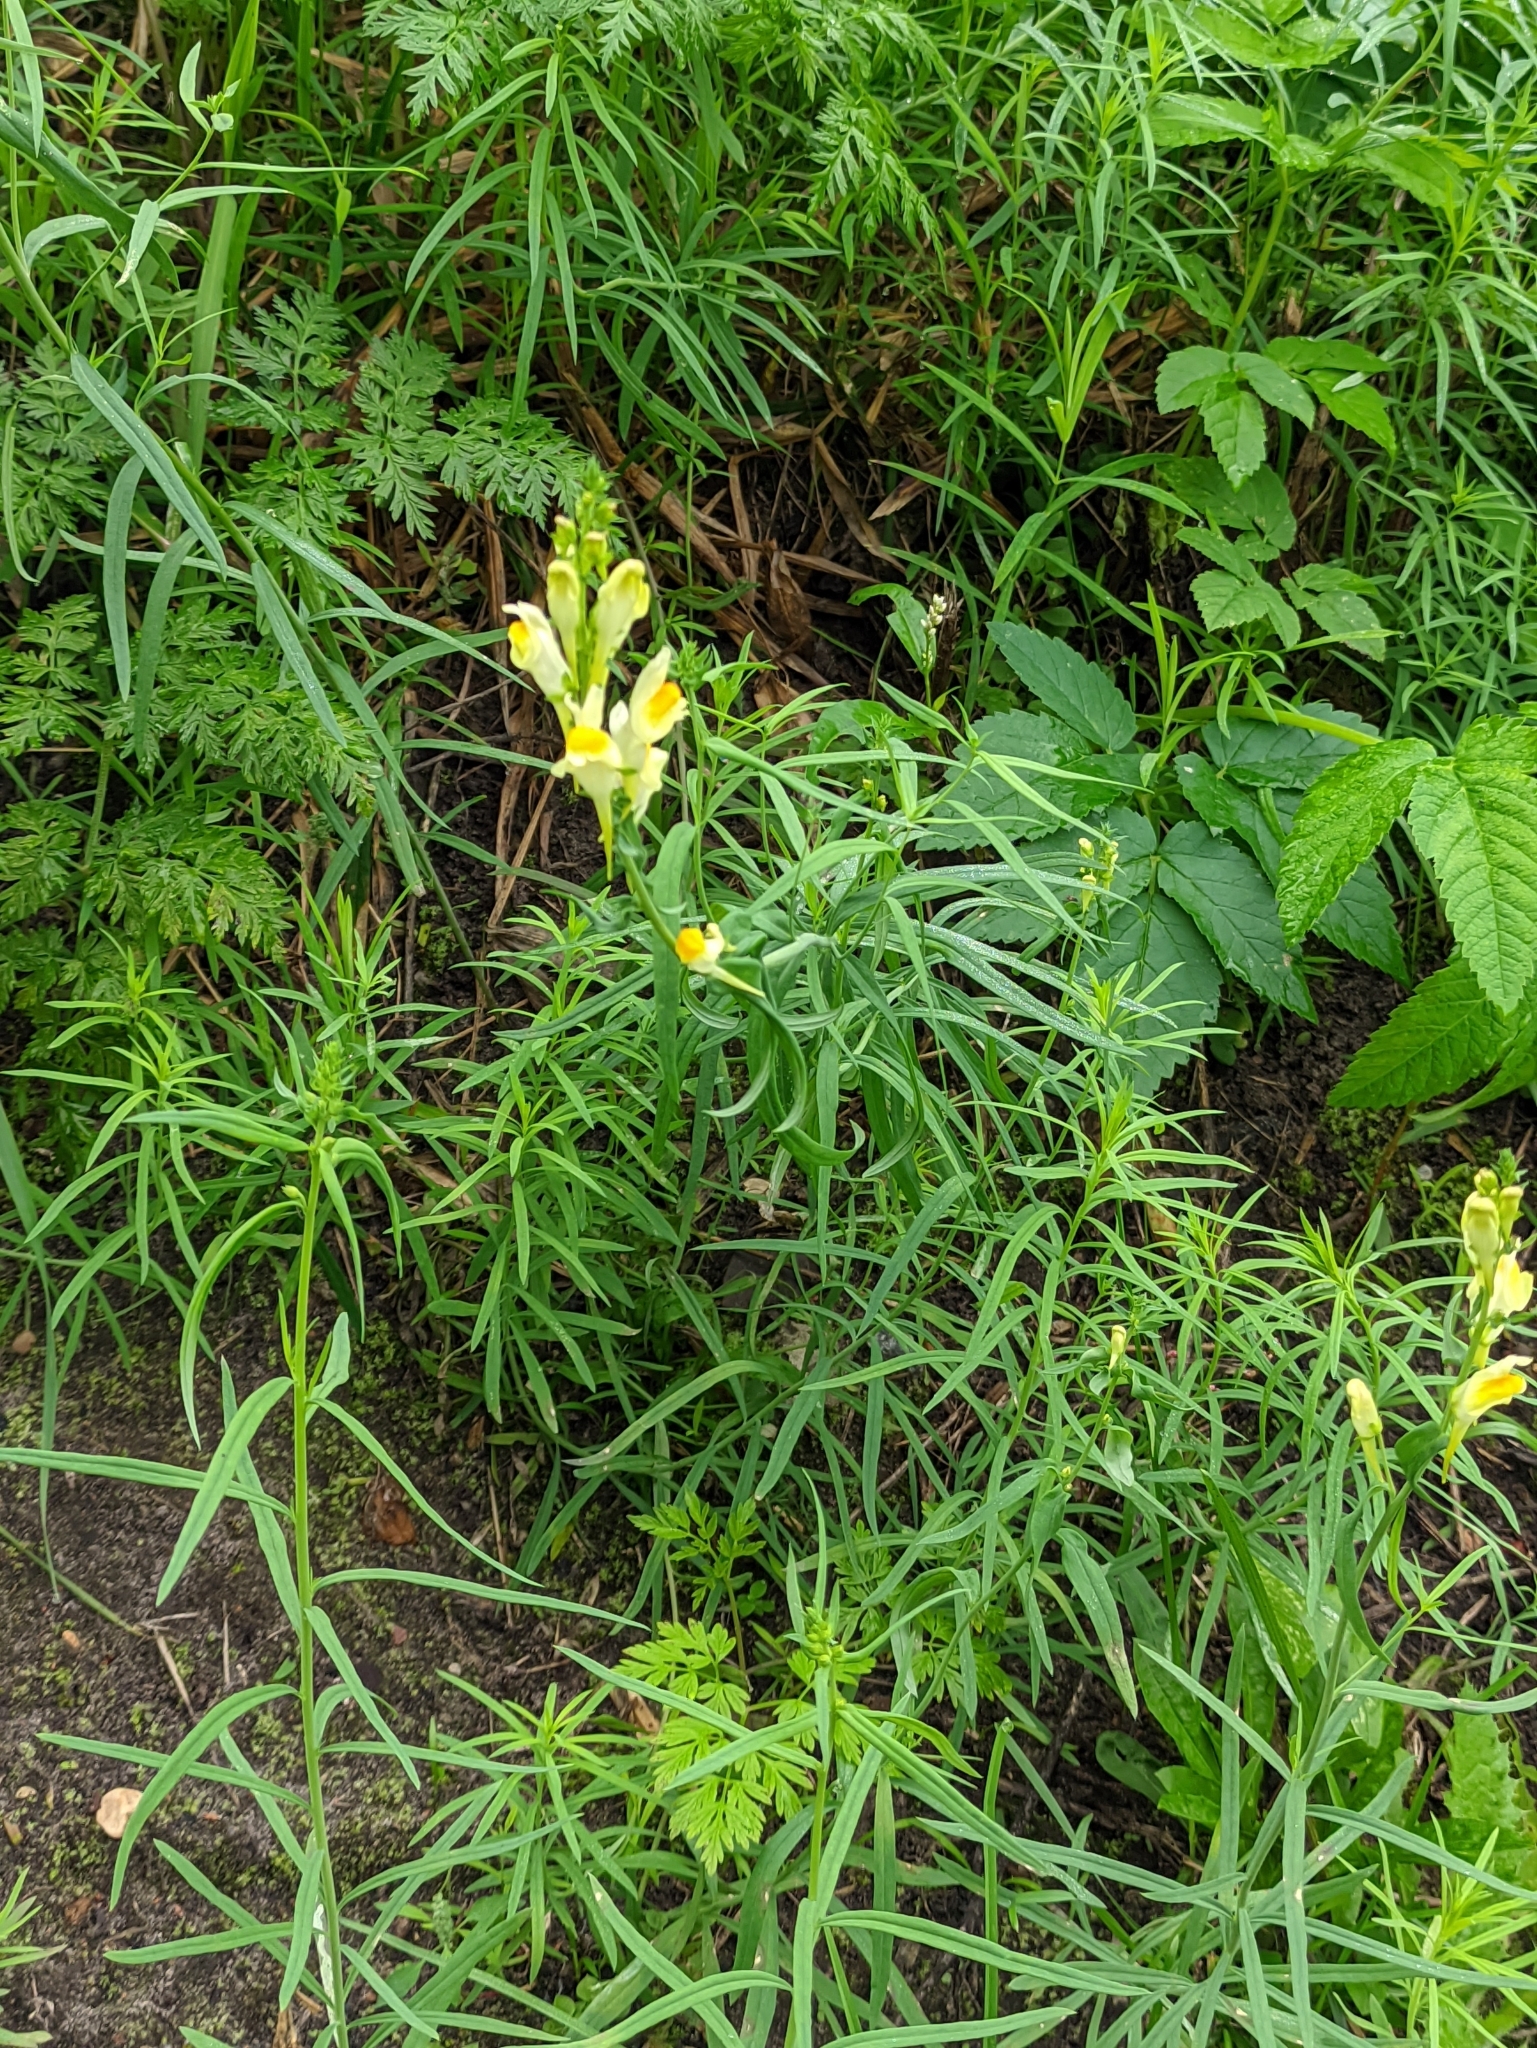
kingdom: Plantae
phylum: Tracheophyta
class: Magnoliopsida
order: Lamiales
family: Plantaginaceae
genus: Linaria
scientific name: Linaria vulgaris
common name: Butter and eggs
